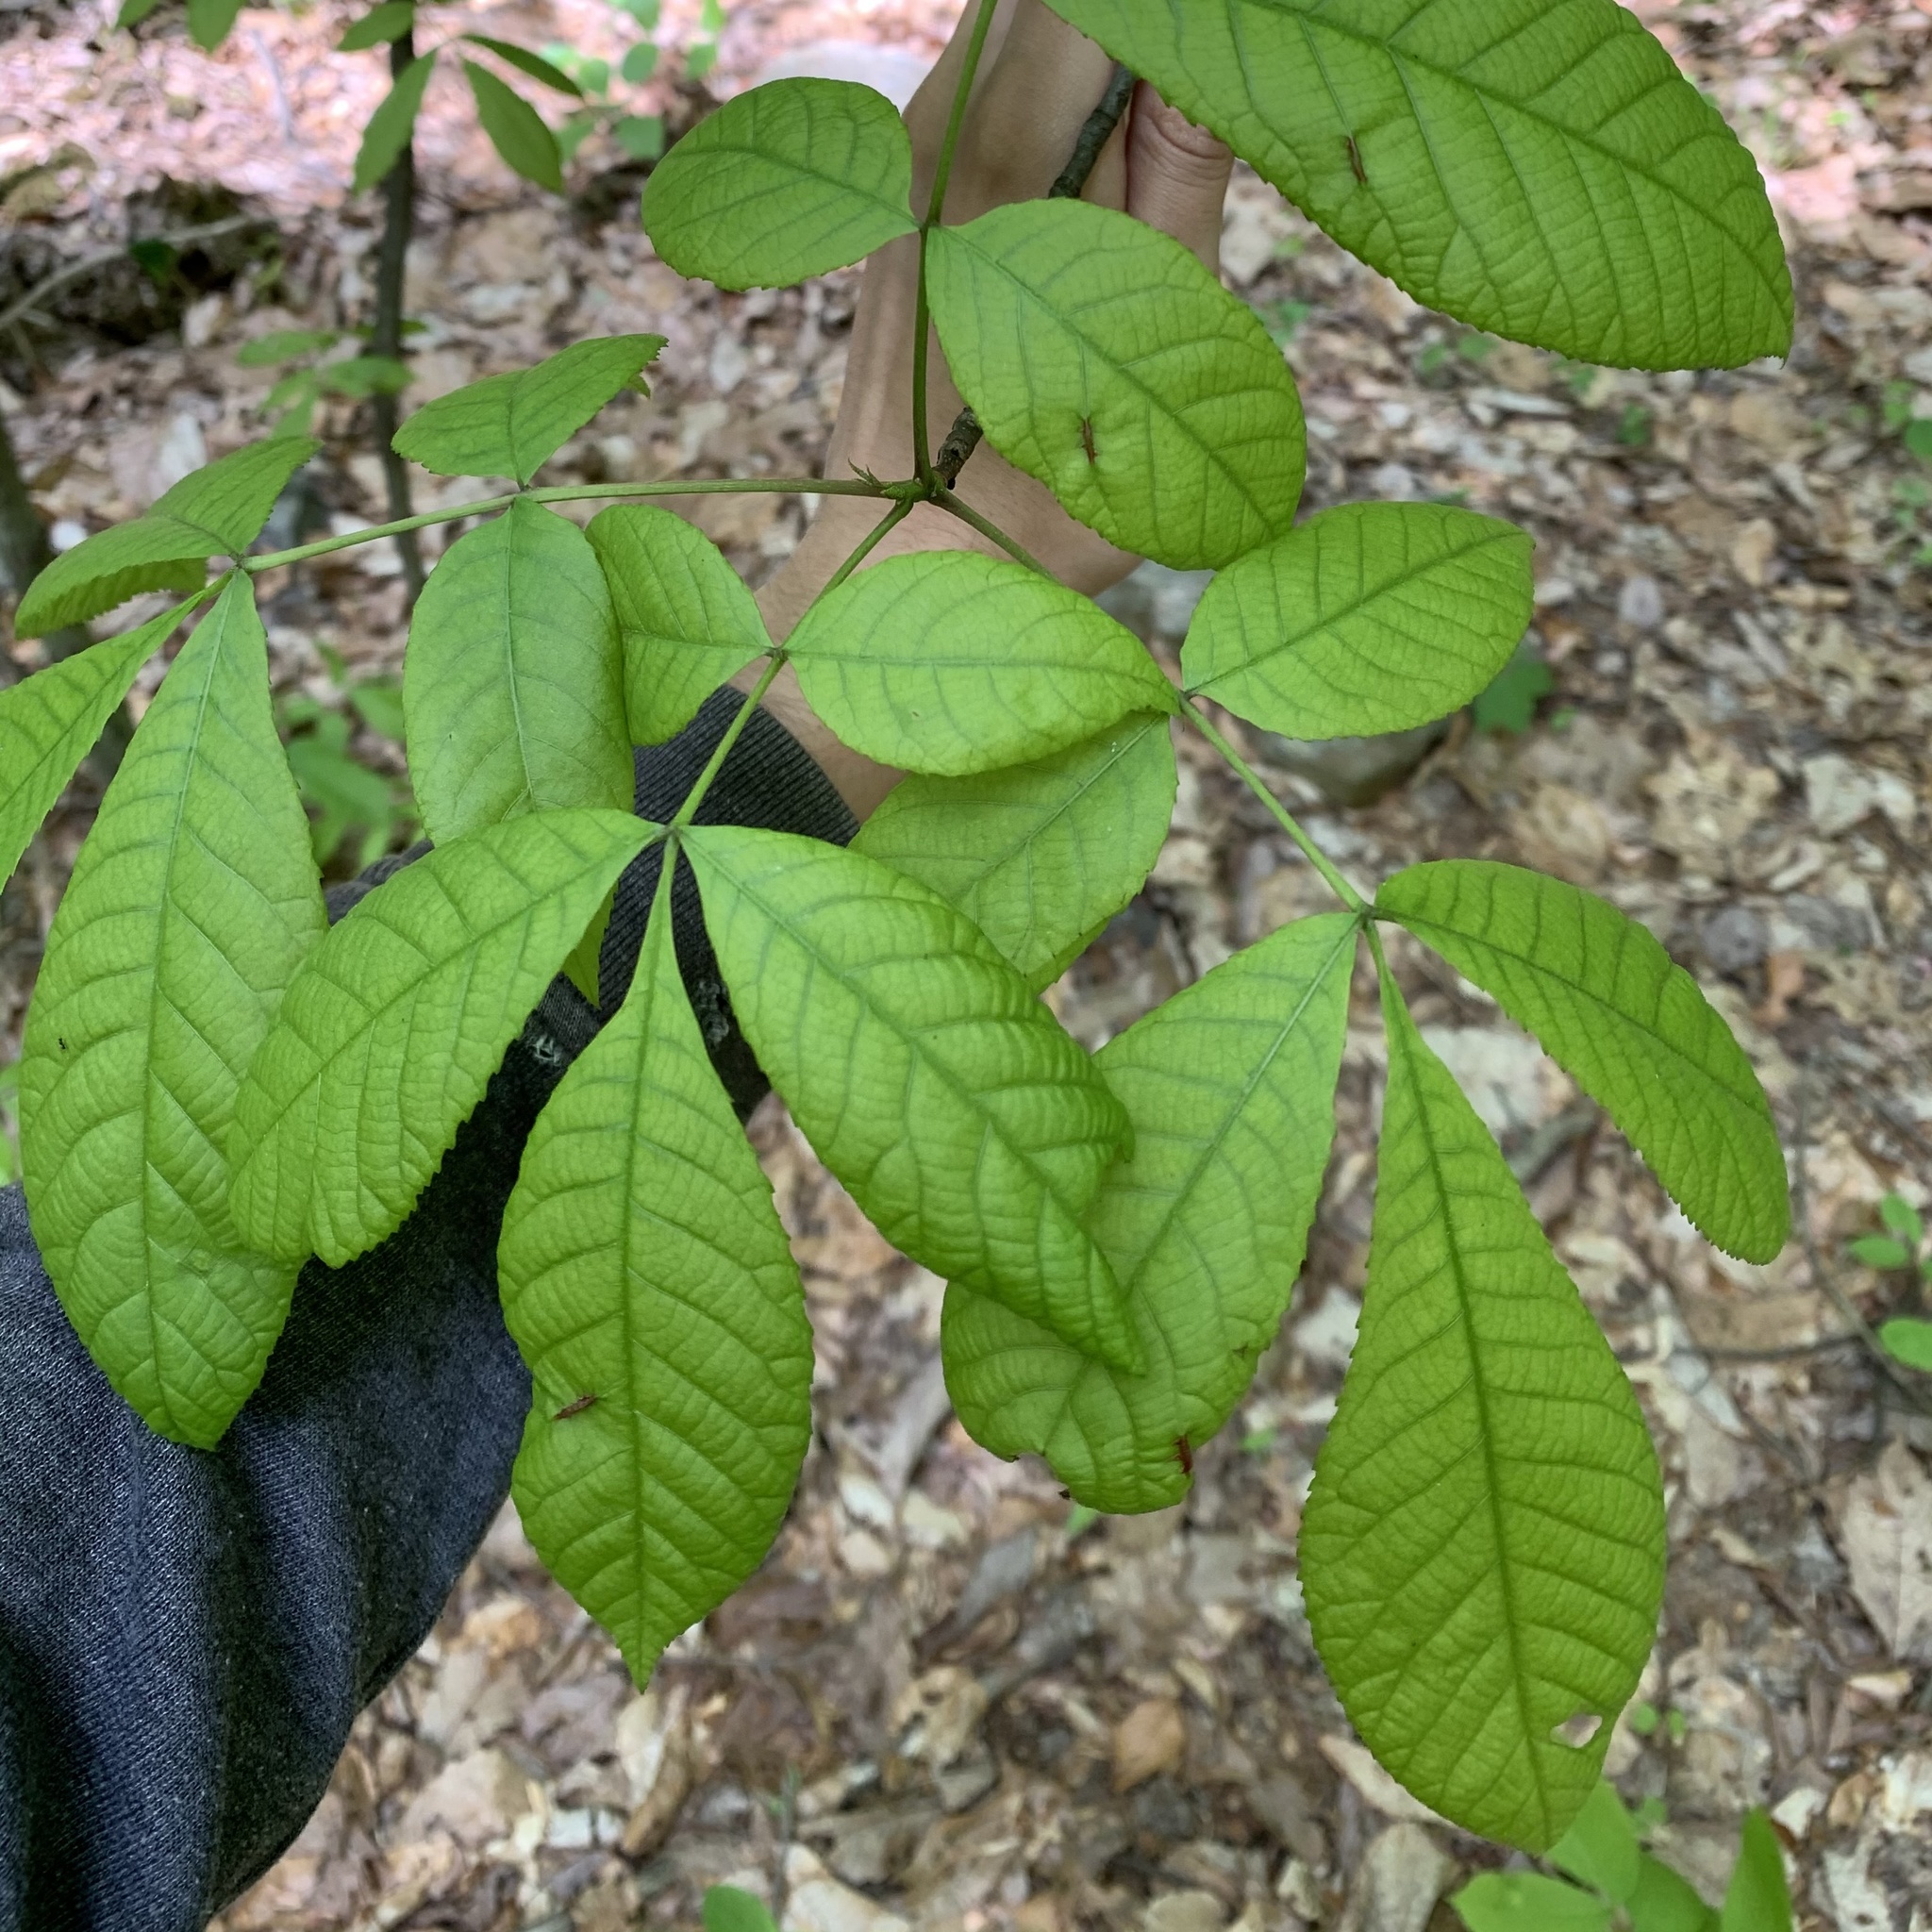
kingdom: Animalia
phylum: Arthropoda
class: Insecta
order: Hemiptera
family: Phylloxeridae
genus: Phylloxera
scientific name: Phylloxera caryaevenae
